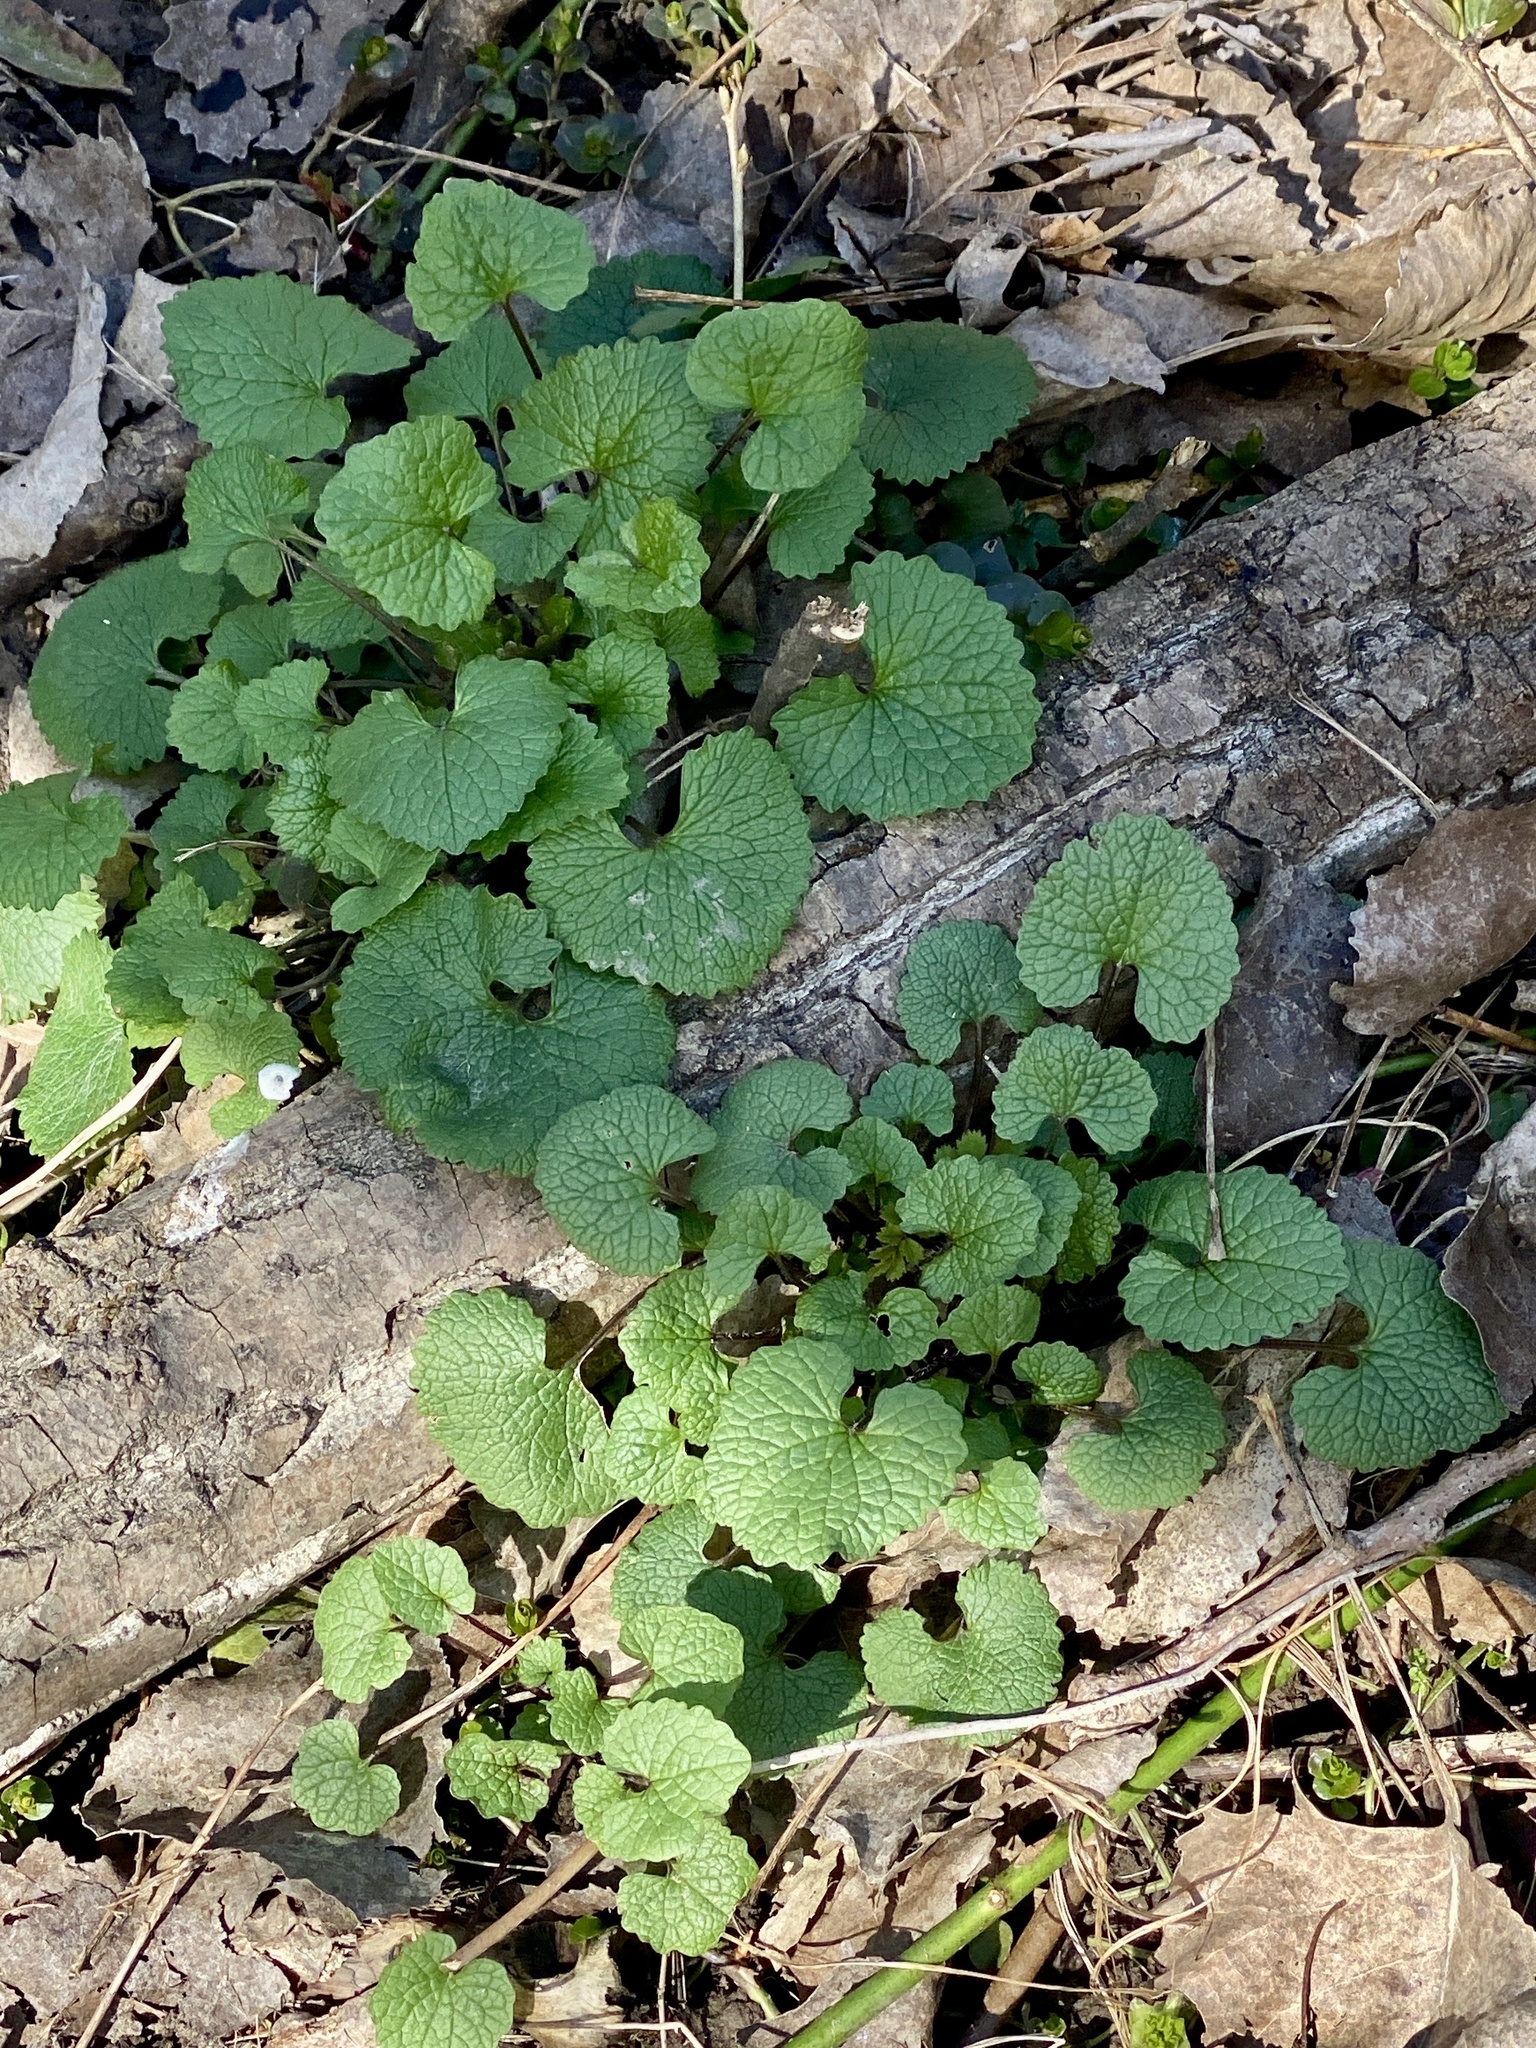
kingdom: Plantae
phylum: Tracheophyta
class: Magnoliopsida
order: Brassicales
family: Brassicaceae
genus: Alliaria
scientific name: Alliaria petiolata
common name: Garlic mustard
